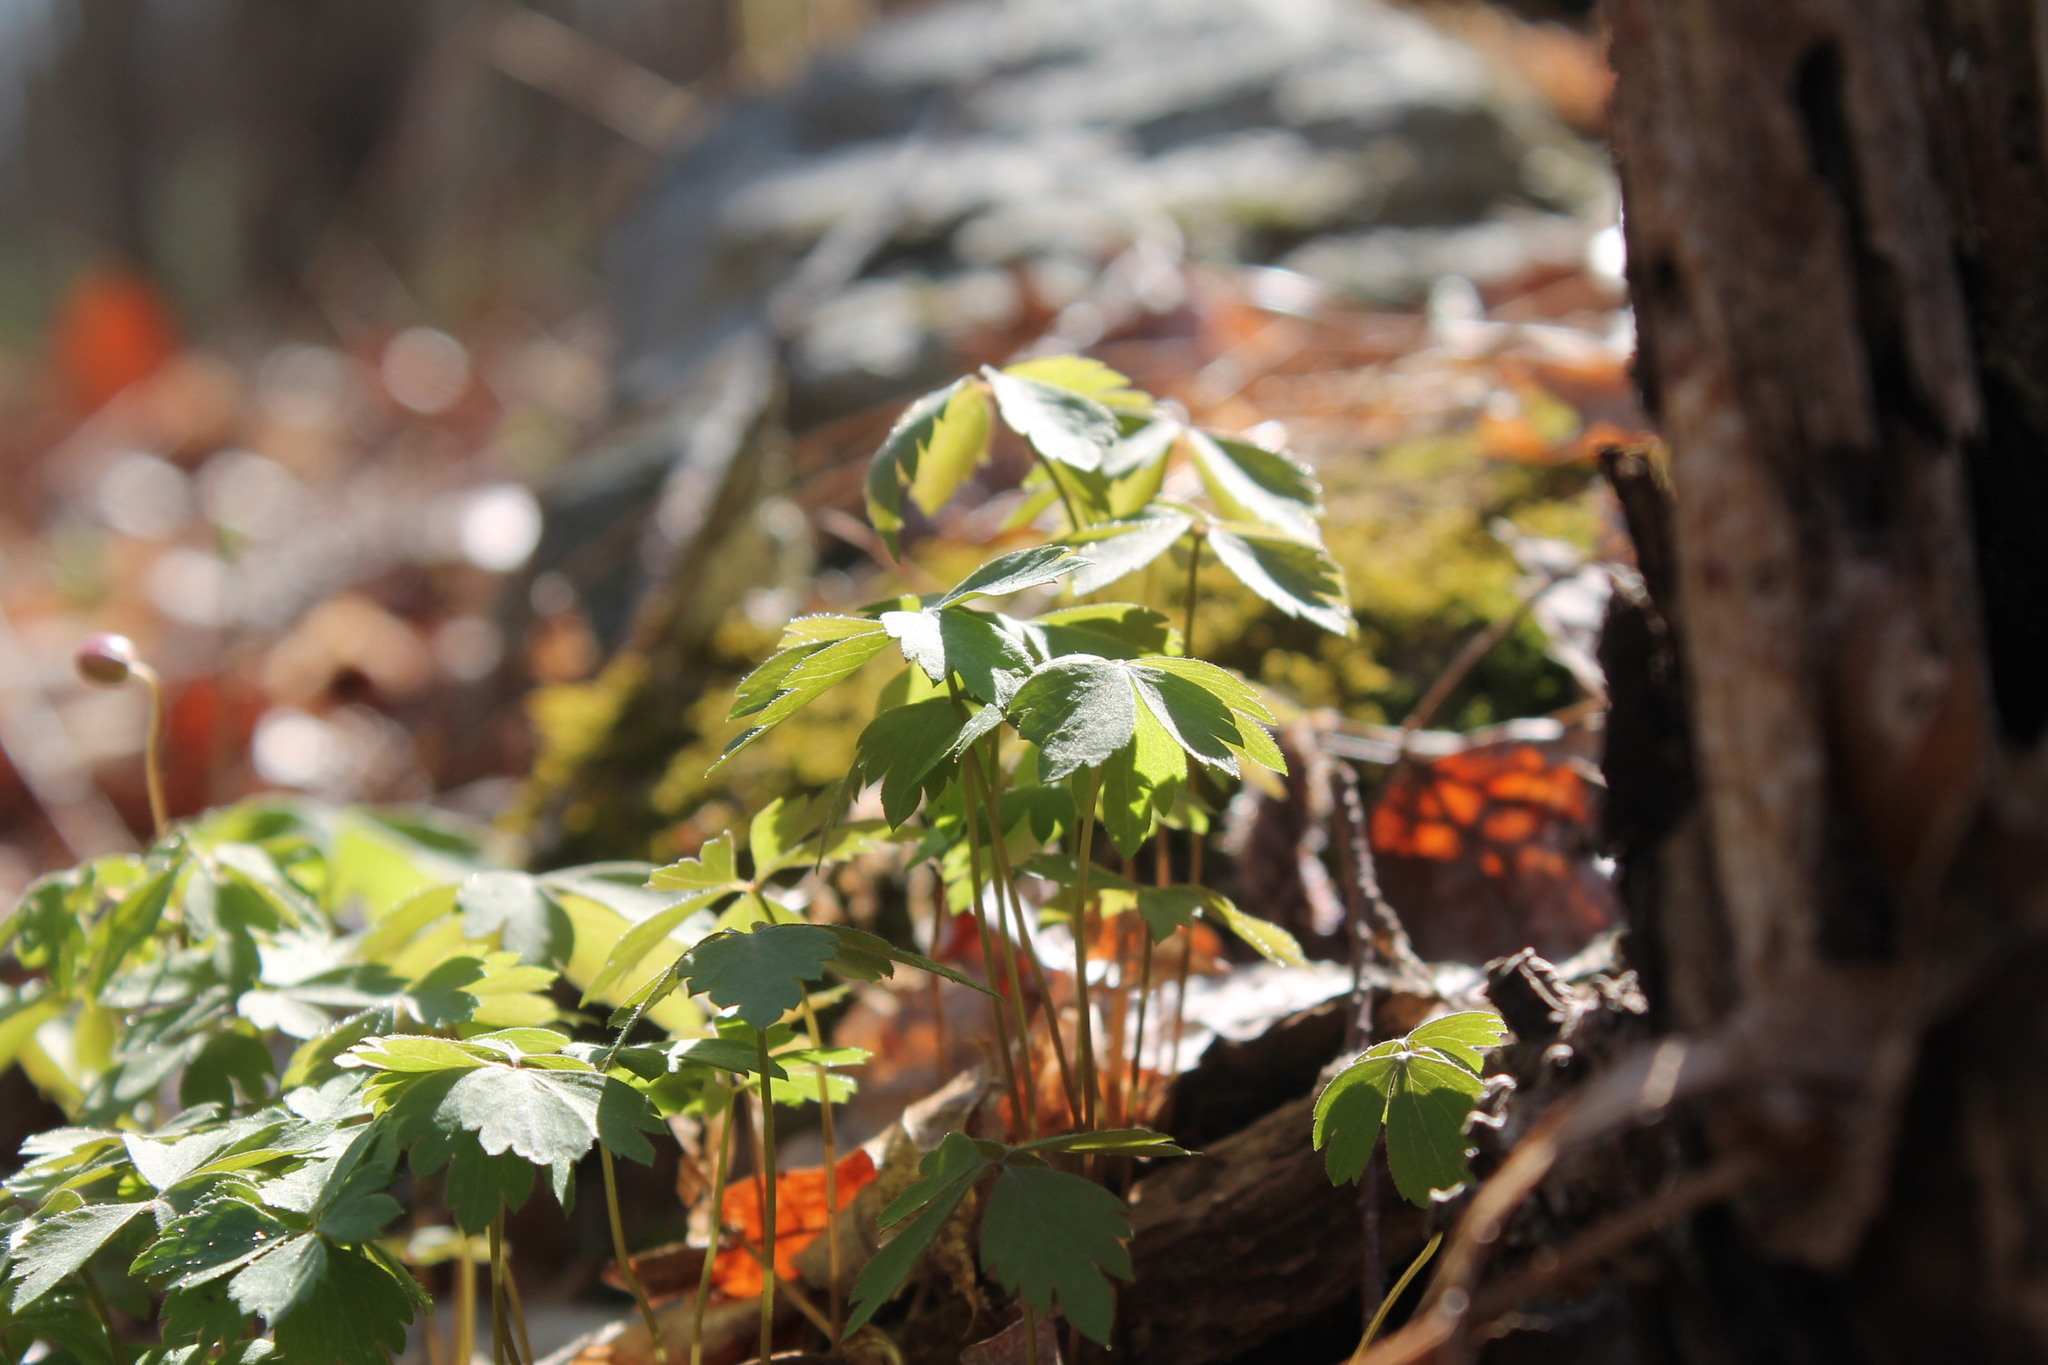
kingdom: Plantae
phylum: Tracheophyta
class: Magnoliopsida
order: Ranunculales
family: Ranunculaceae
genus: Anemone
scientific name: Anemone quinquefolia
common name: Wood anemone
